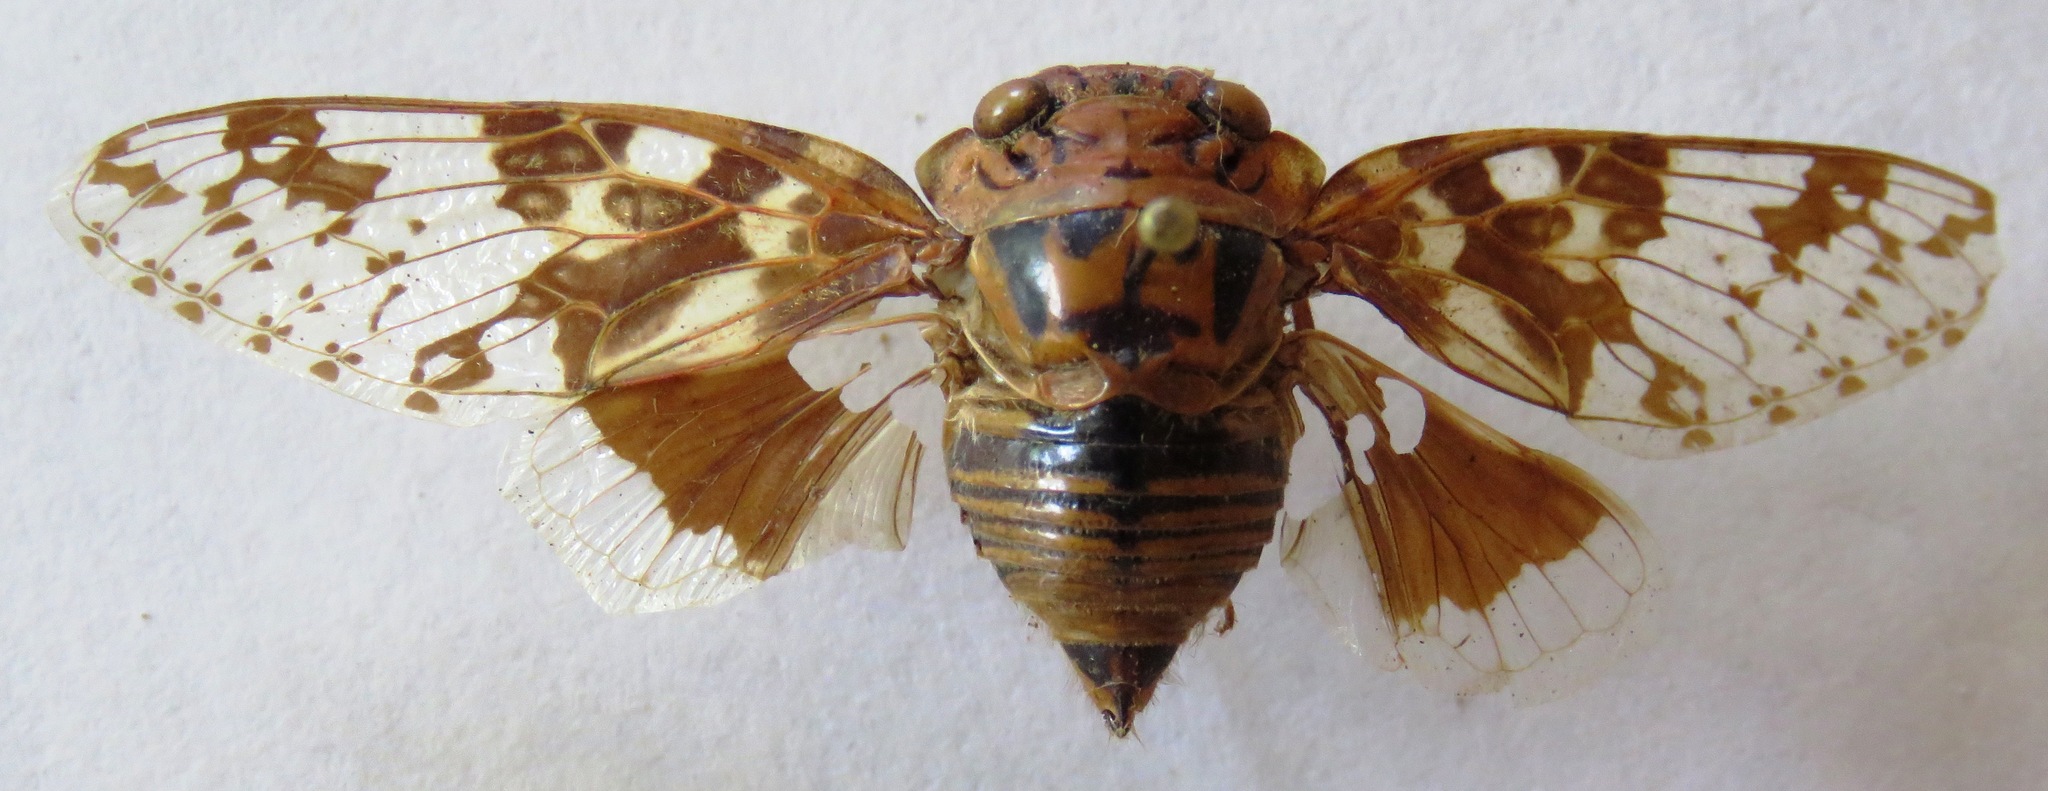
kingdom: Animalia
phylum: Arthropoda
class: Insecta
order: Hemiptera
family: Cicadidae
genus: Platypleura
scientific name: Platypleura nobilis
